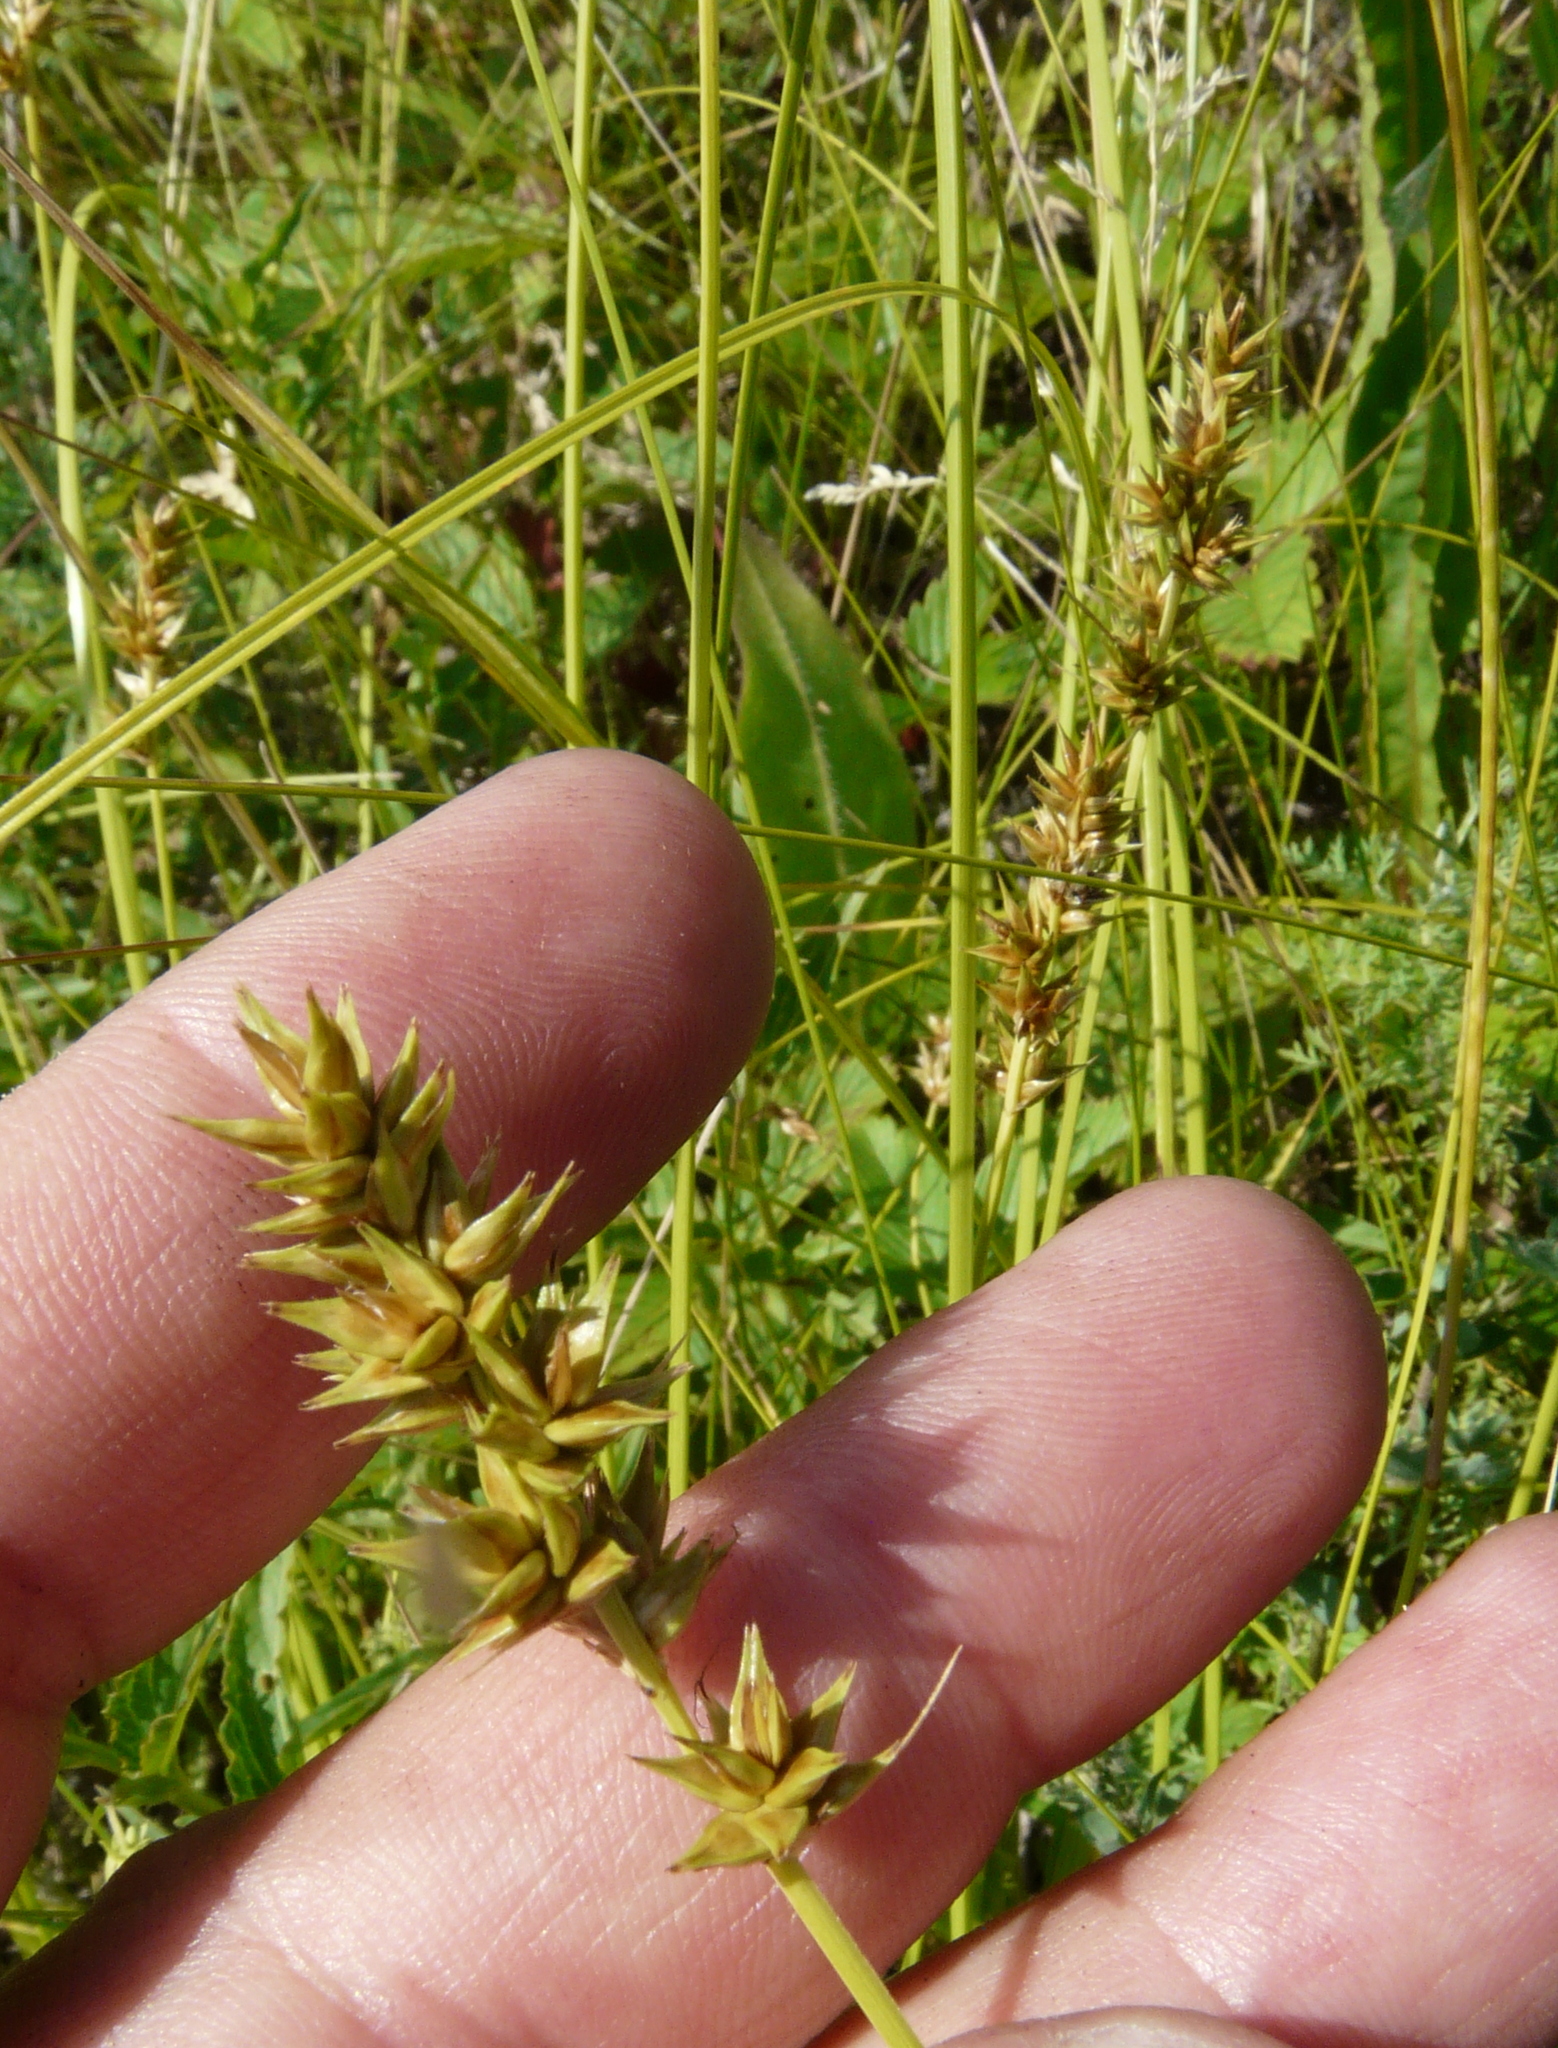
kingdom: Plantae
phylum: Tracheophyta
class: Liliopsida
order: Poales
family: Cyperaceae
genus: Carex
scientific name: Carex spicata
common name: Spiked sedge
